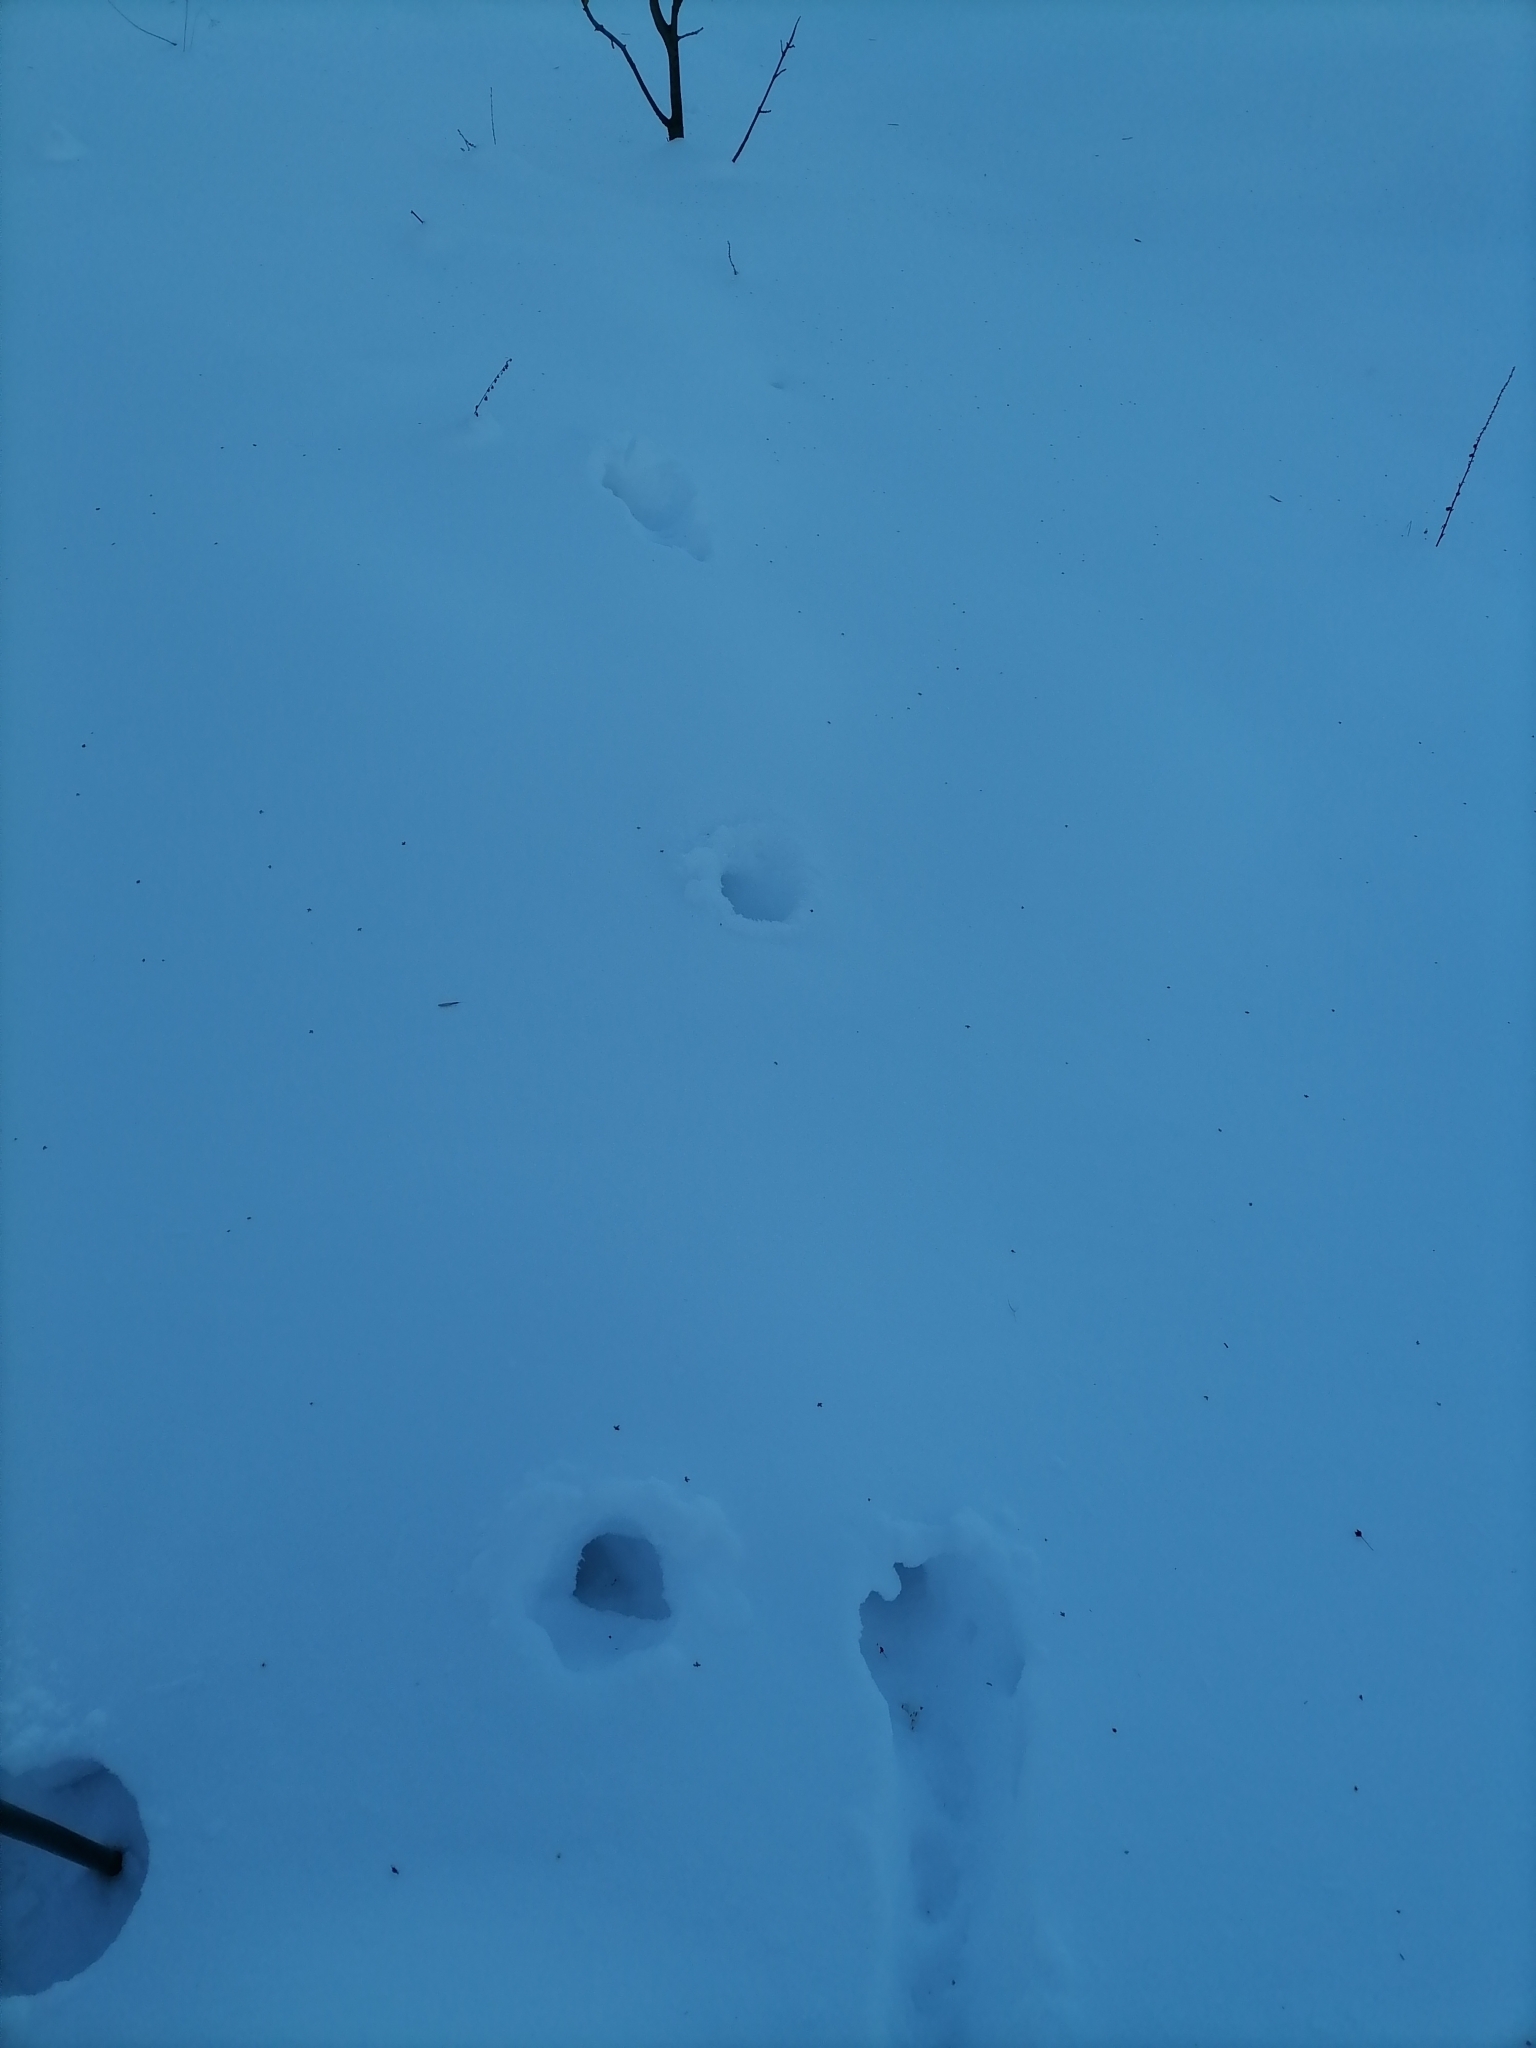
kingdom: Animalia
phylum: Chordata
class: Aves
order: Galliformes
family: Phasianidae
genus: Perdix
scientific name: Perdix perdix
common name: Grey partridge
